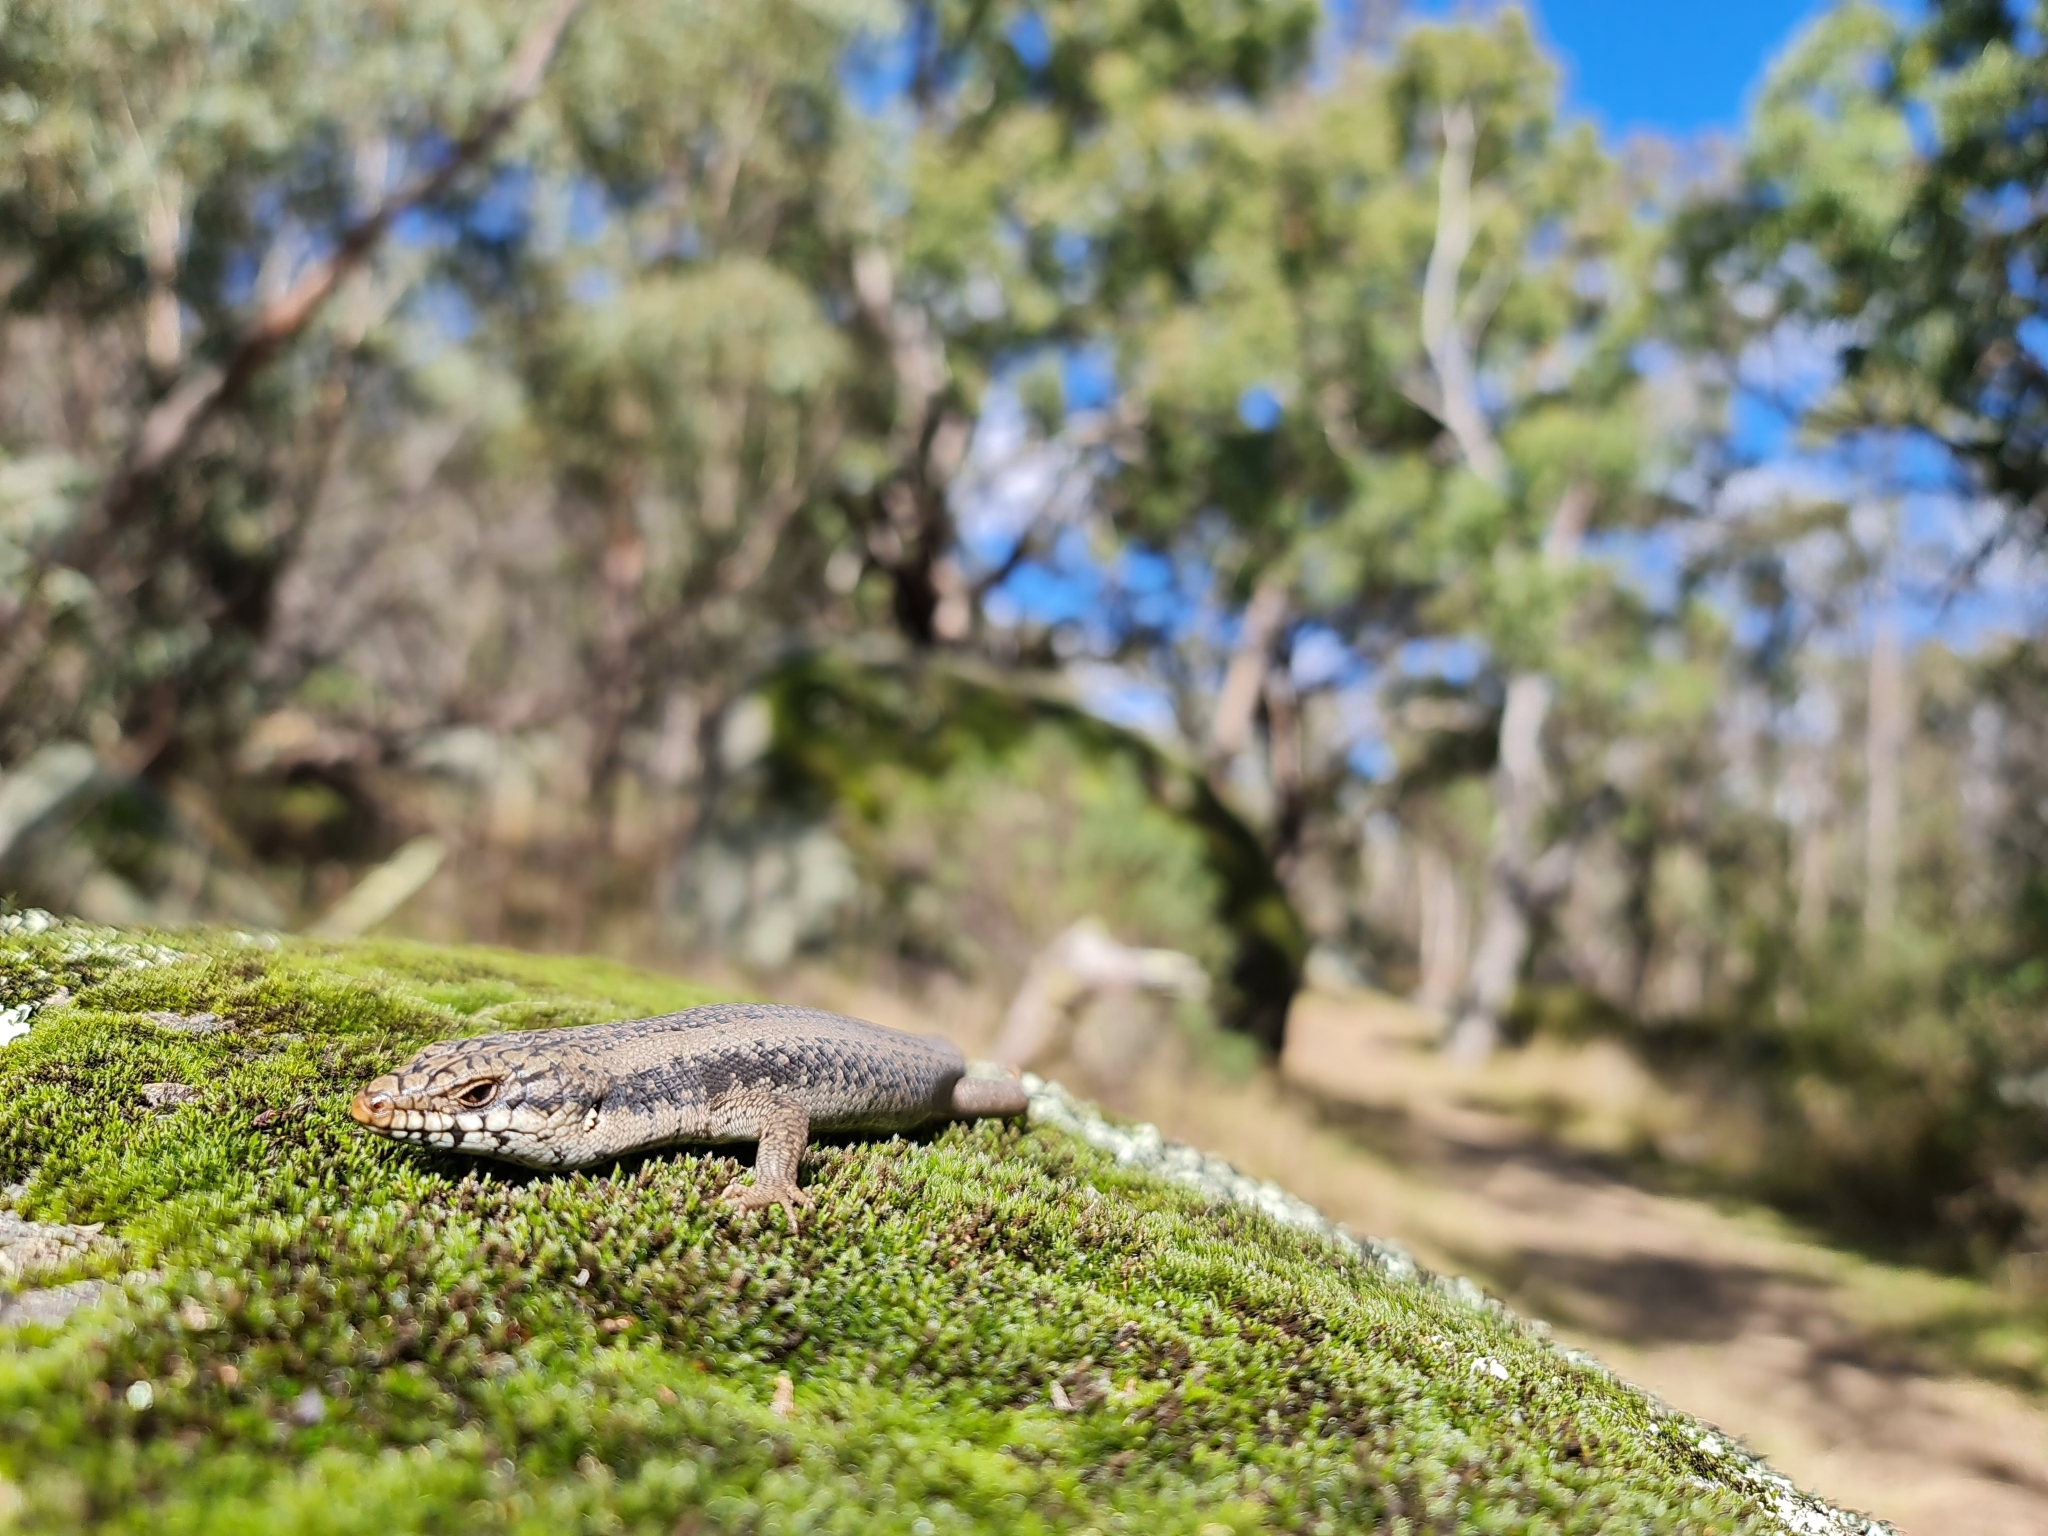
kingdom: Animalia
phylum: Chordata
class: Squamata
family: Scincidae
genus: Egernia
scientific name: Egernia striolata
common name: Tree skink
